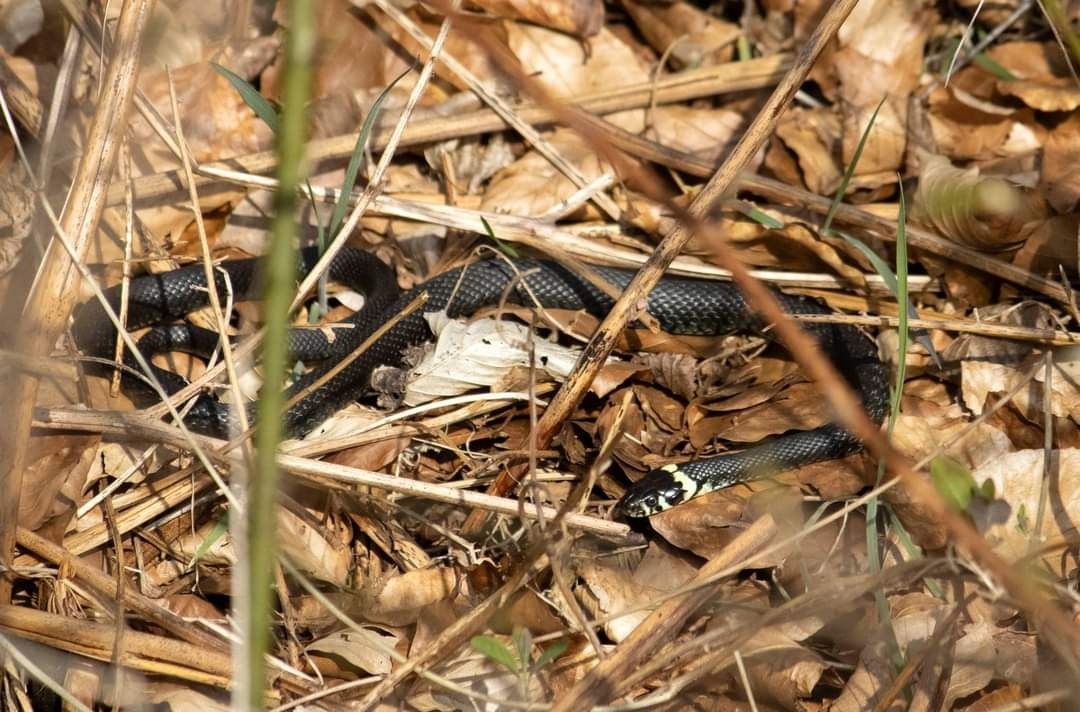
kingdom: Animalia
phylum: Chordata
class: Squamata
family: Colubridae
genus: Natrix
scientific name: Natrix natrix
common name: Grass snake
